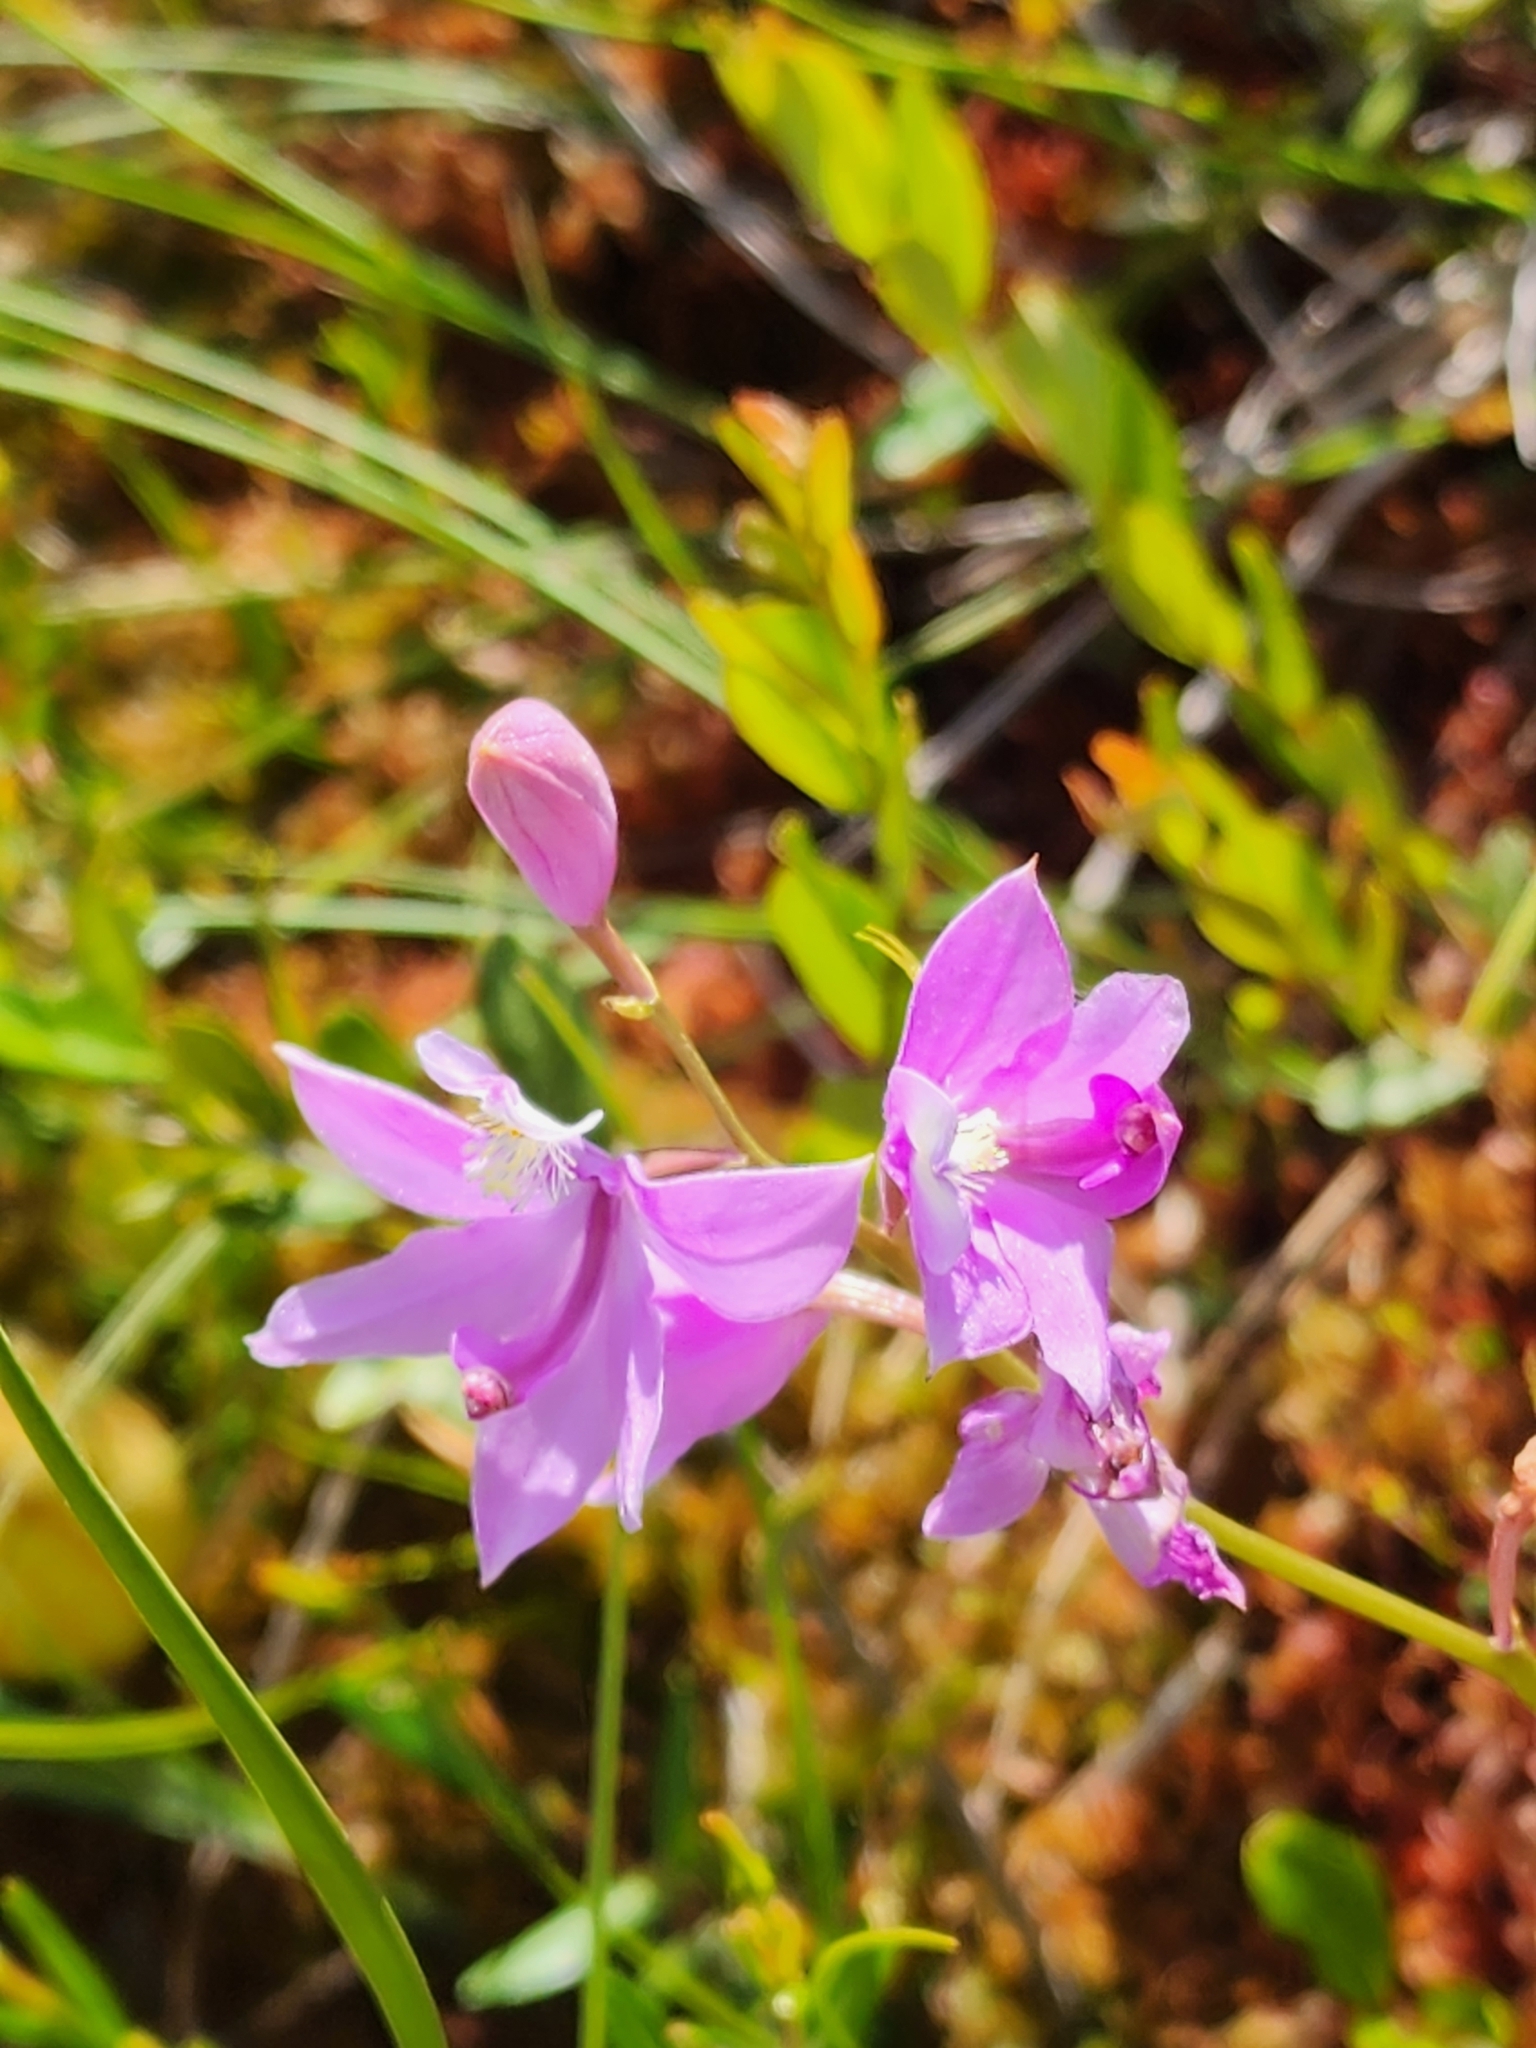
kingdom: Plantae
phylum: Tracheophyta
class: Liliopsida
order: Asparagales
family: Orchidaceae
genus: Calopogon
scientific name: Calopogon tuberosus
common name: Grass-pink
